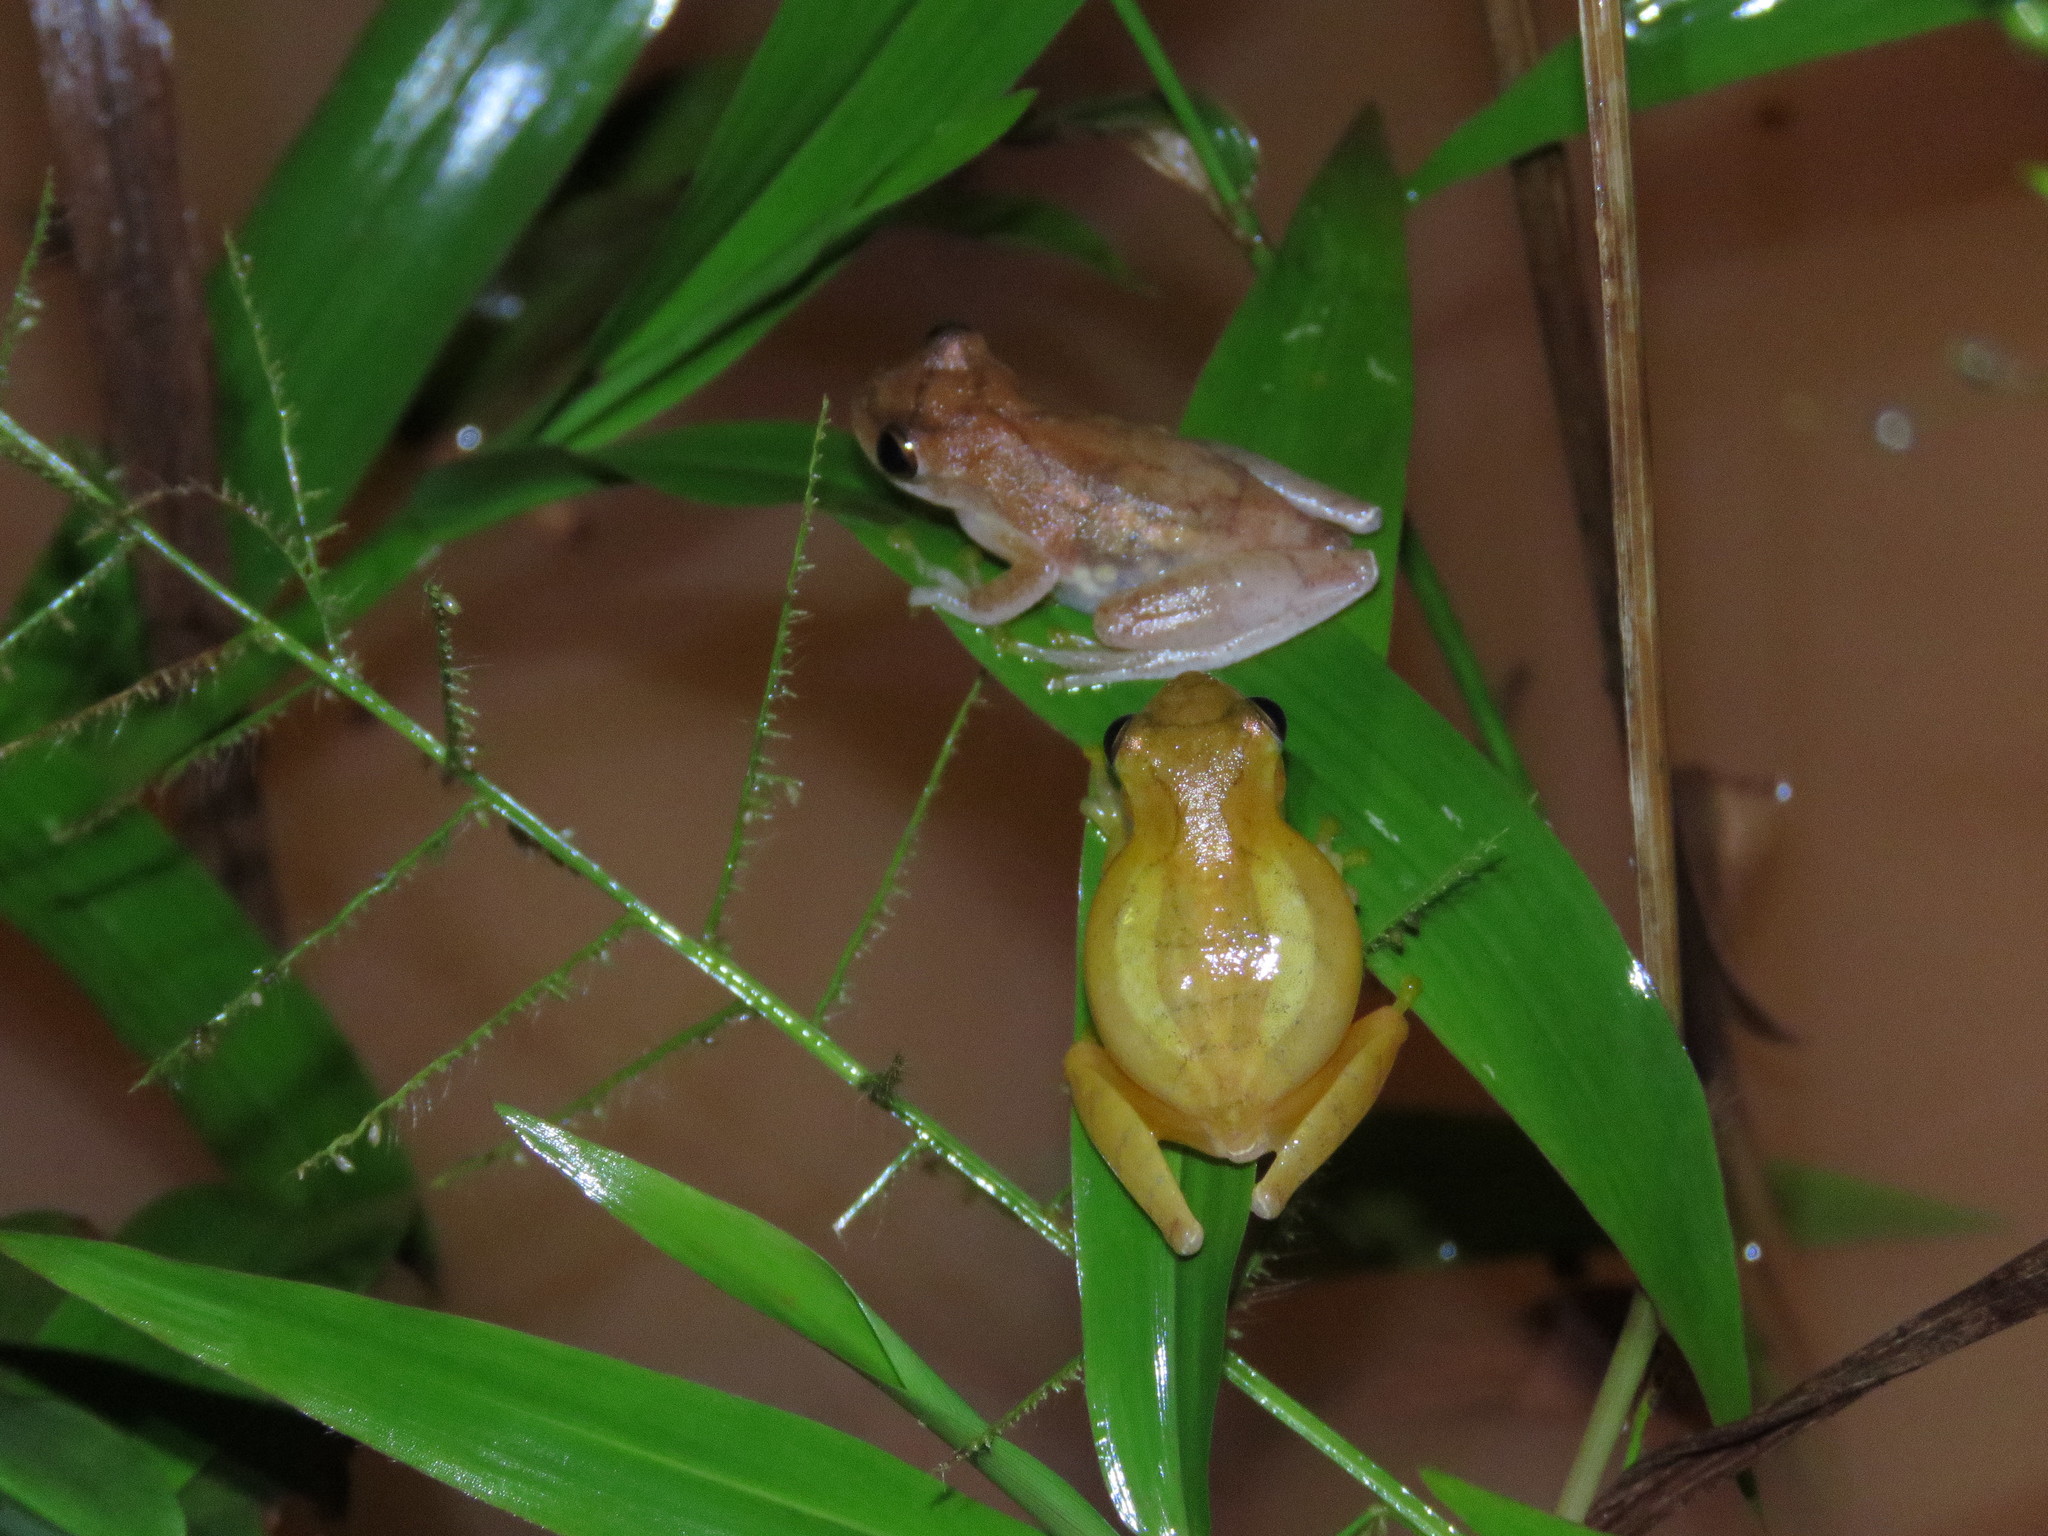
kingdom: Animalia
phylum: Chordata
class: Amphibia
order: Anura
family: Hylidae
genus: Dendropsophus
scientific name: Dendropsophus leali
